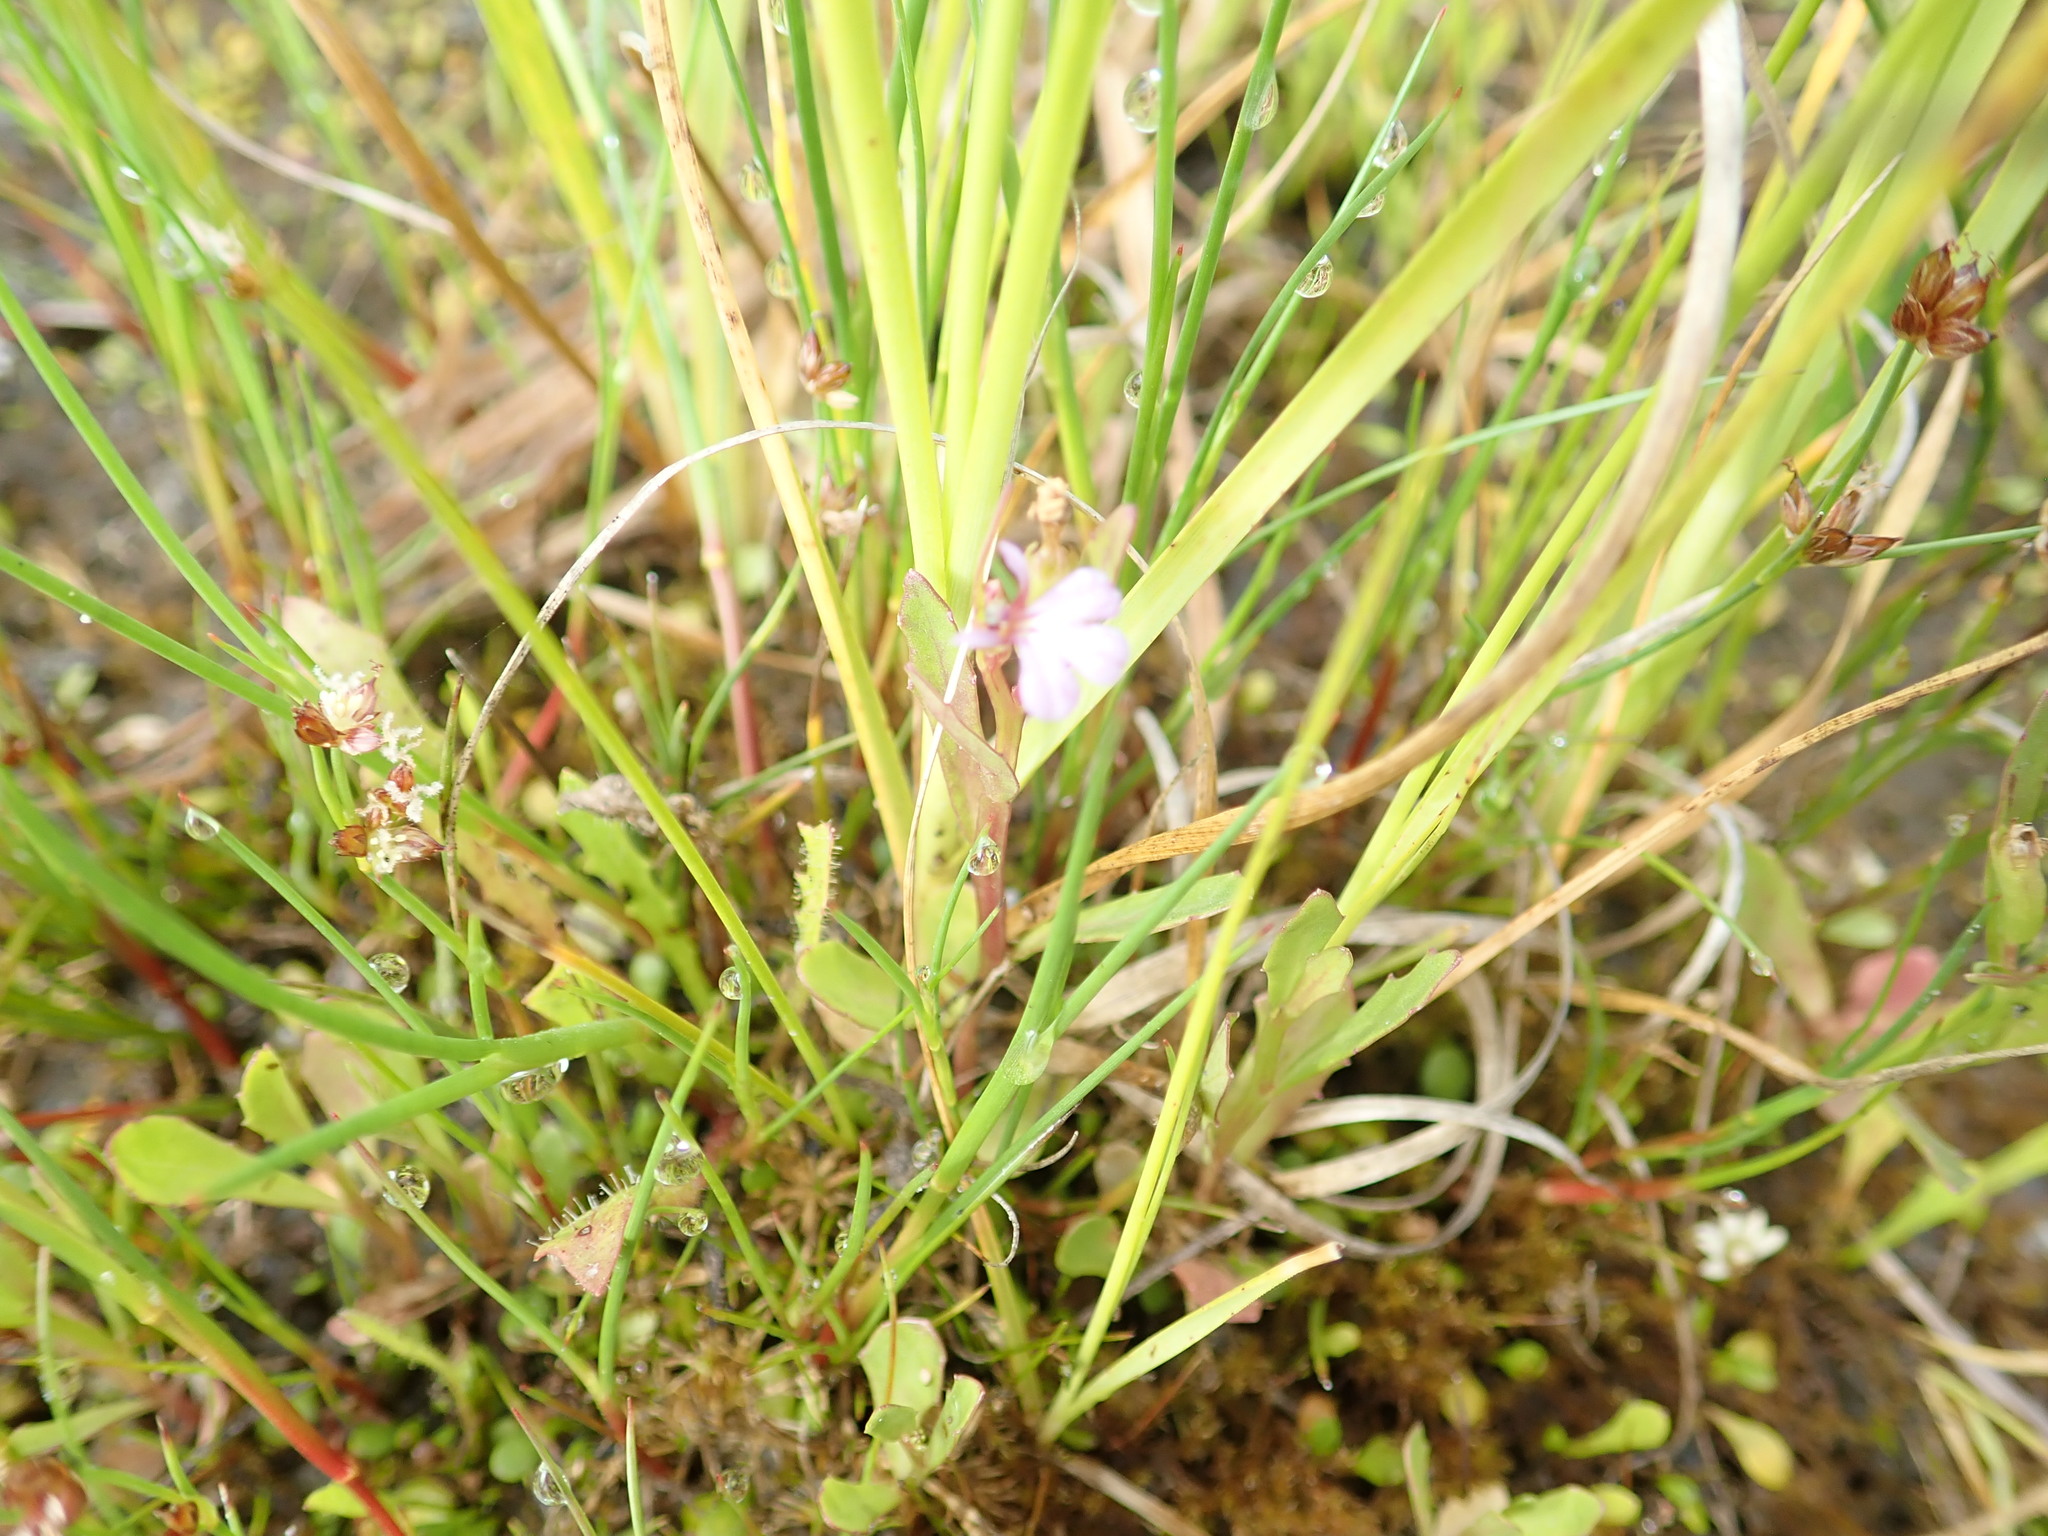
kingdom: Plantae
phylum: Tracheophyta
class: Magnoliopsida
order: Asterales
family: Campanulaceae
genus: Lobelia
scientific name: Lobelia anceps
